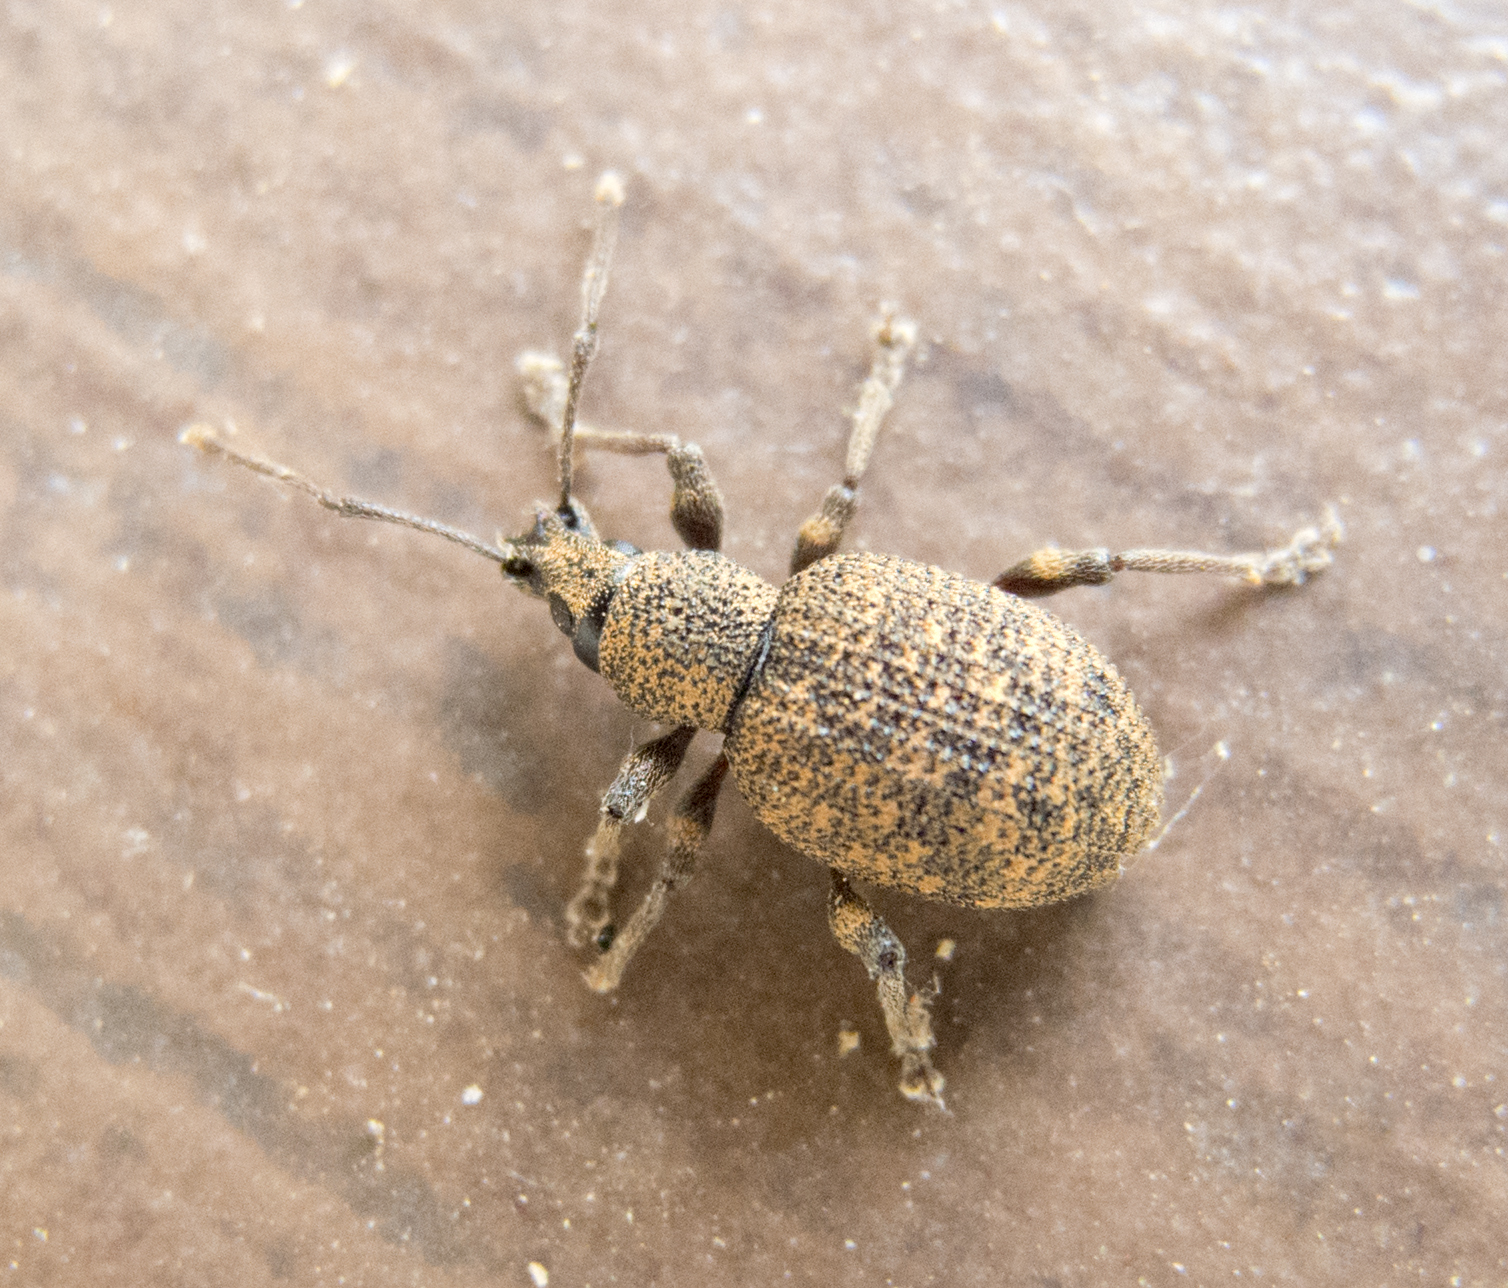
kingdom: Animalia
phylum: Arthropoda
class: Insecta
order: Coleoptera
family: Curculionidae
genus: Otiorhynchus
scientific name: Otiorhynchus simulans
